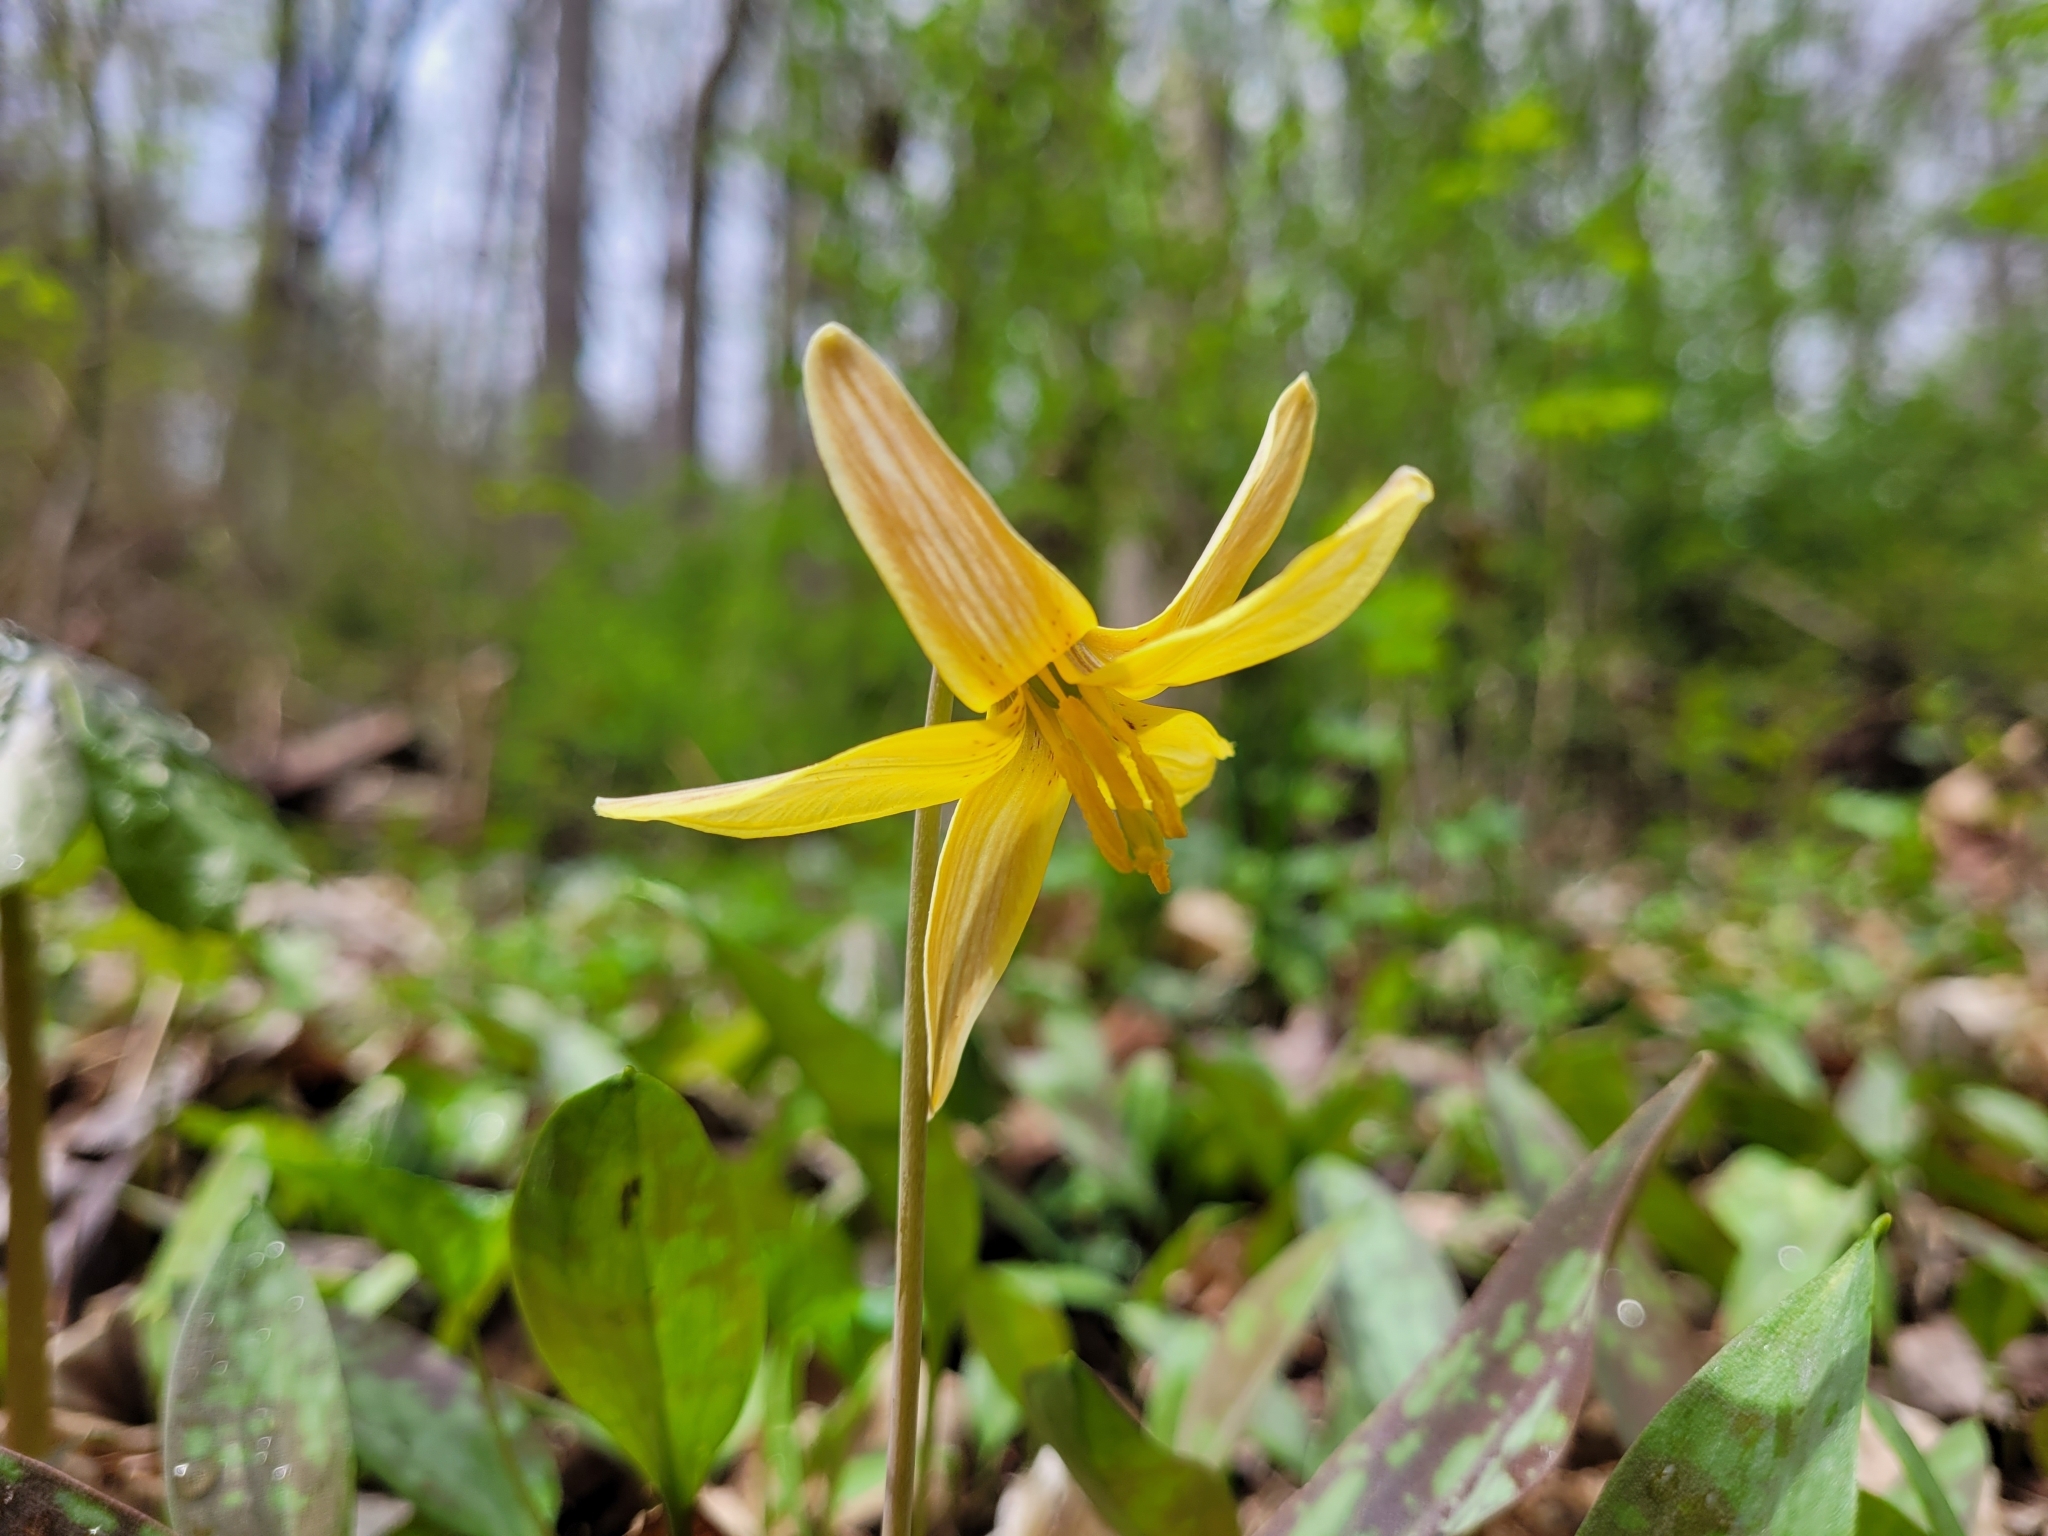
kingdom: Plantae
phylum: Tracheophyta
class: Liliopsida
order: Liliales
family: Liliaceae
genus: Erythronium
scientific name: Erythronium americanum
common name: Yellow adder's-tongue
